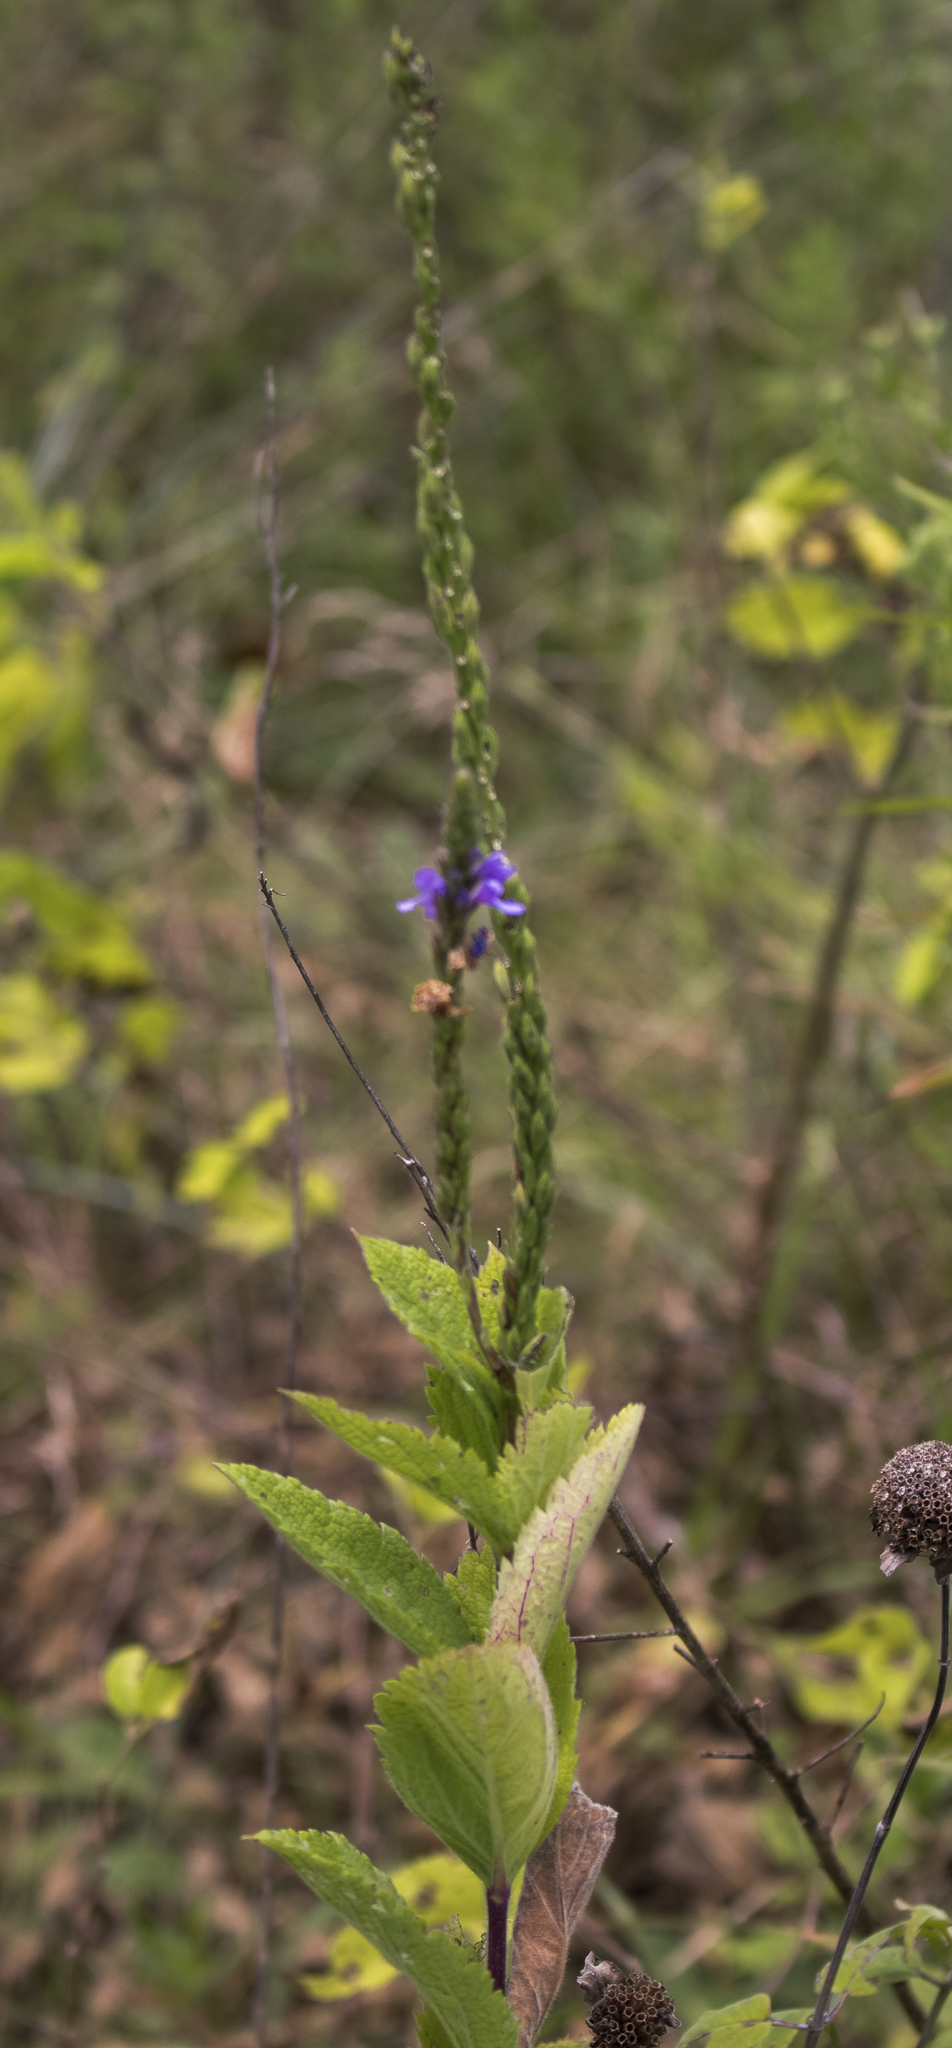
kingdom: Plantae
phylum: Tracheophyta
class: Magnoliopsida
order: Lamiales
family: Verbenaceae
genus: Verbena
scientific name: Verbena stricta
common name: Hoary vervain
